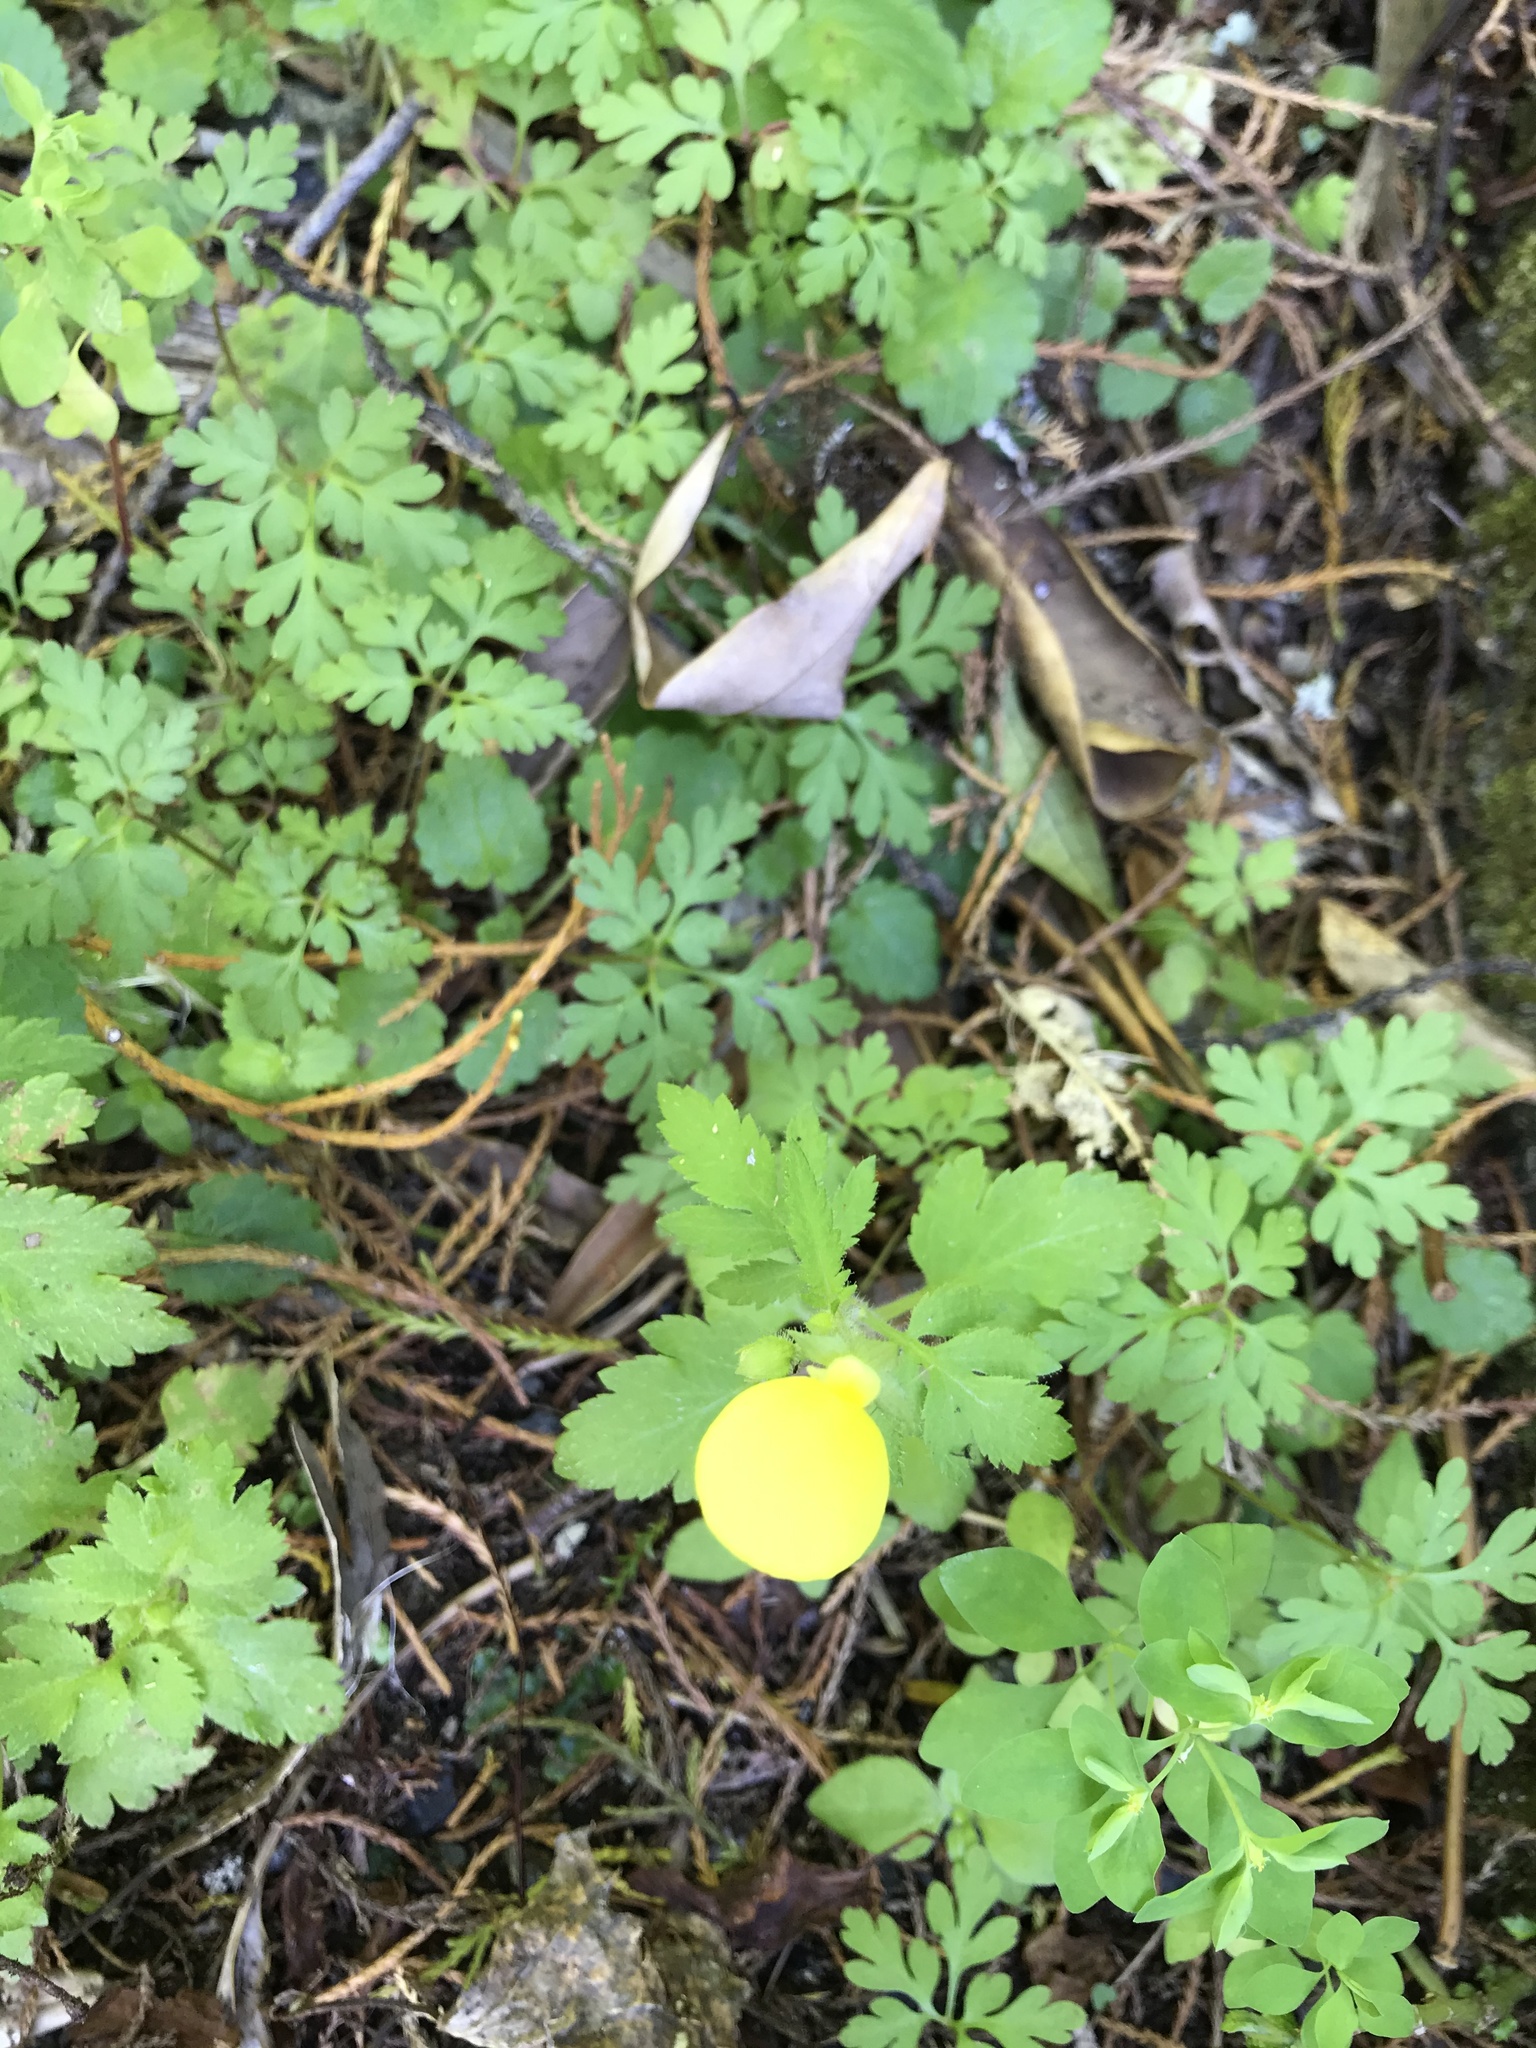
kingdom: Plantae
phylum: Tracheophyta
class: Magnoliopsida
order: Lamiales
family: Calceolariaceae
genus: Calceolaria
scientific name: Calceolaria tripartita
